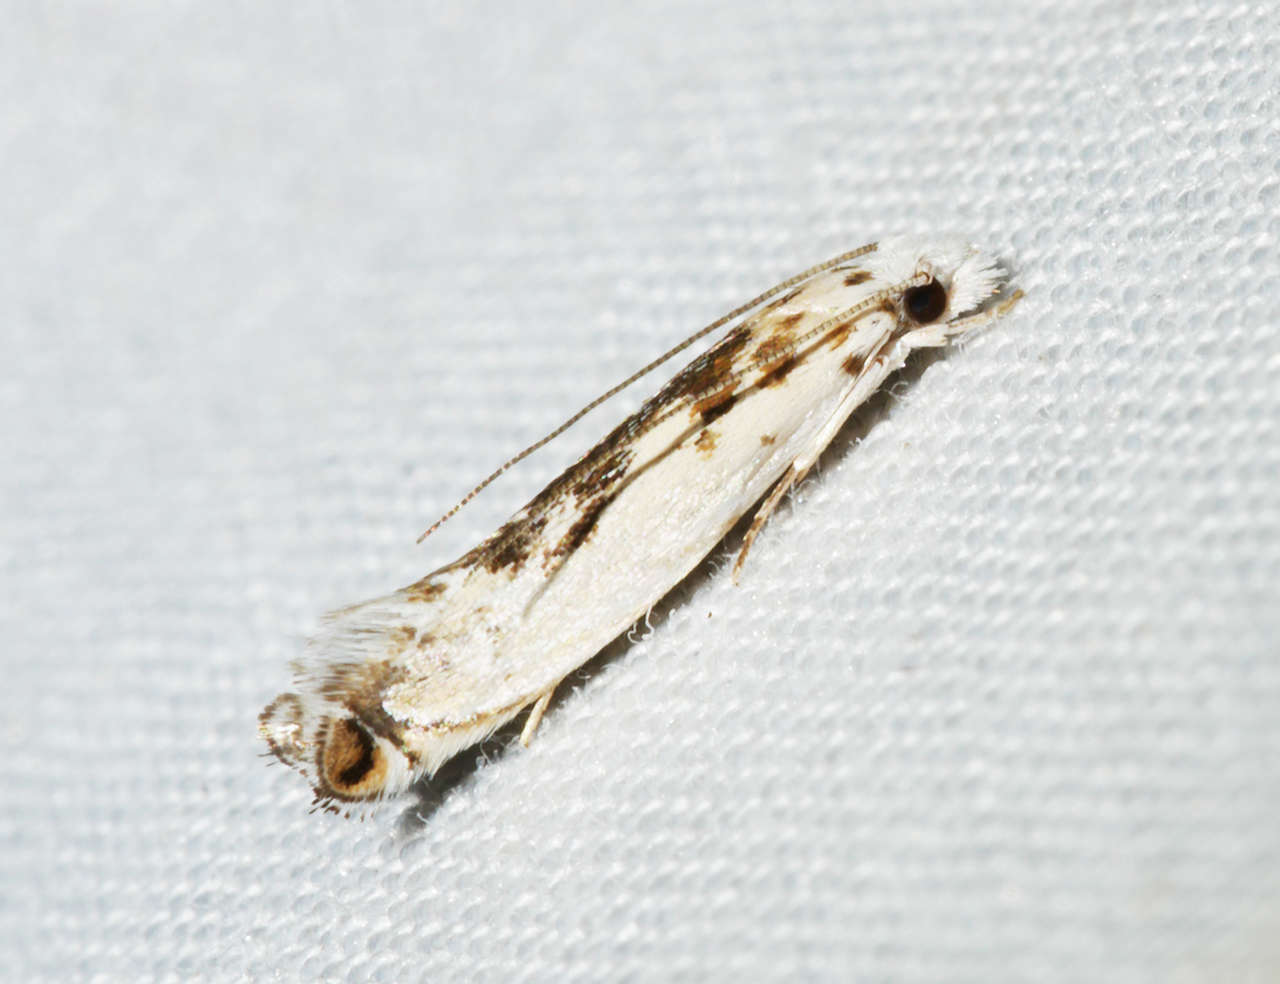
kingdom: Animalia
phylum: Arthropoda
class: Insecta
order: Lepidoptera
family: Tineidae
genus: Erechthias
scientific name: Erechthias mystacinella
